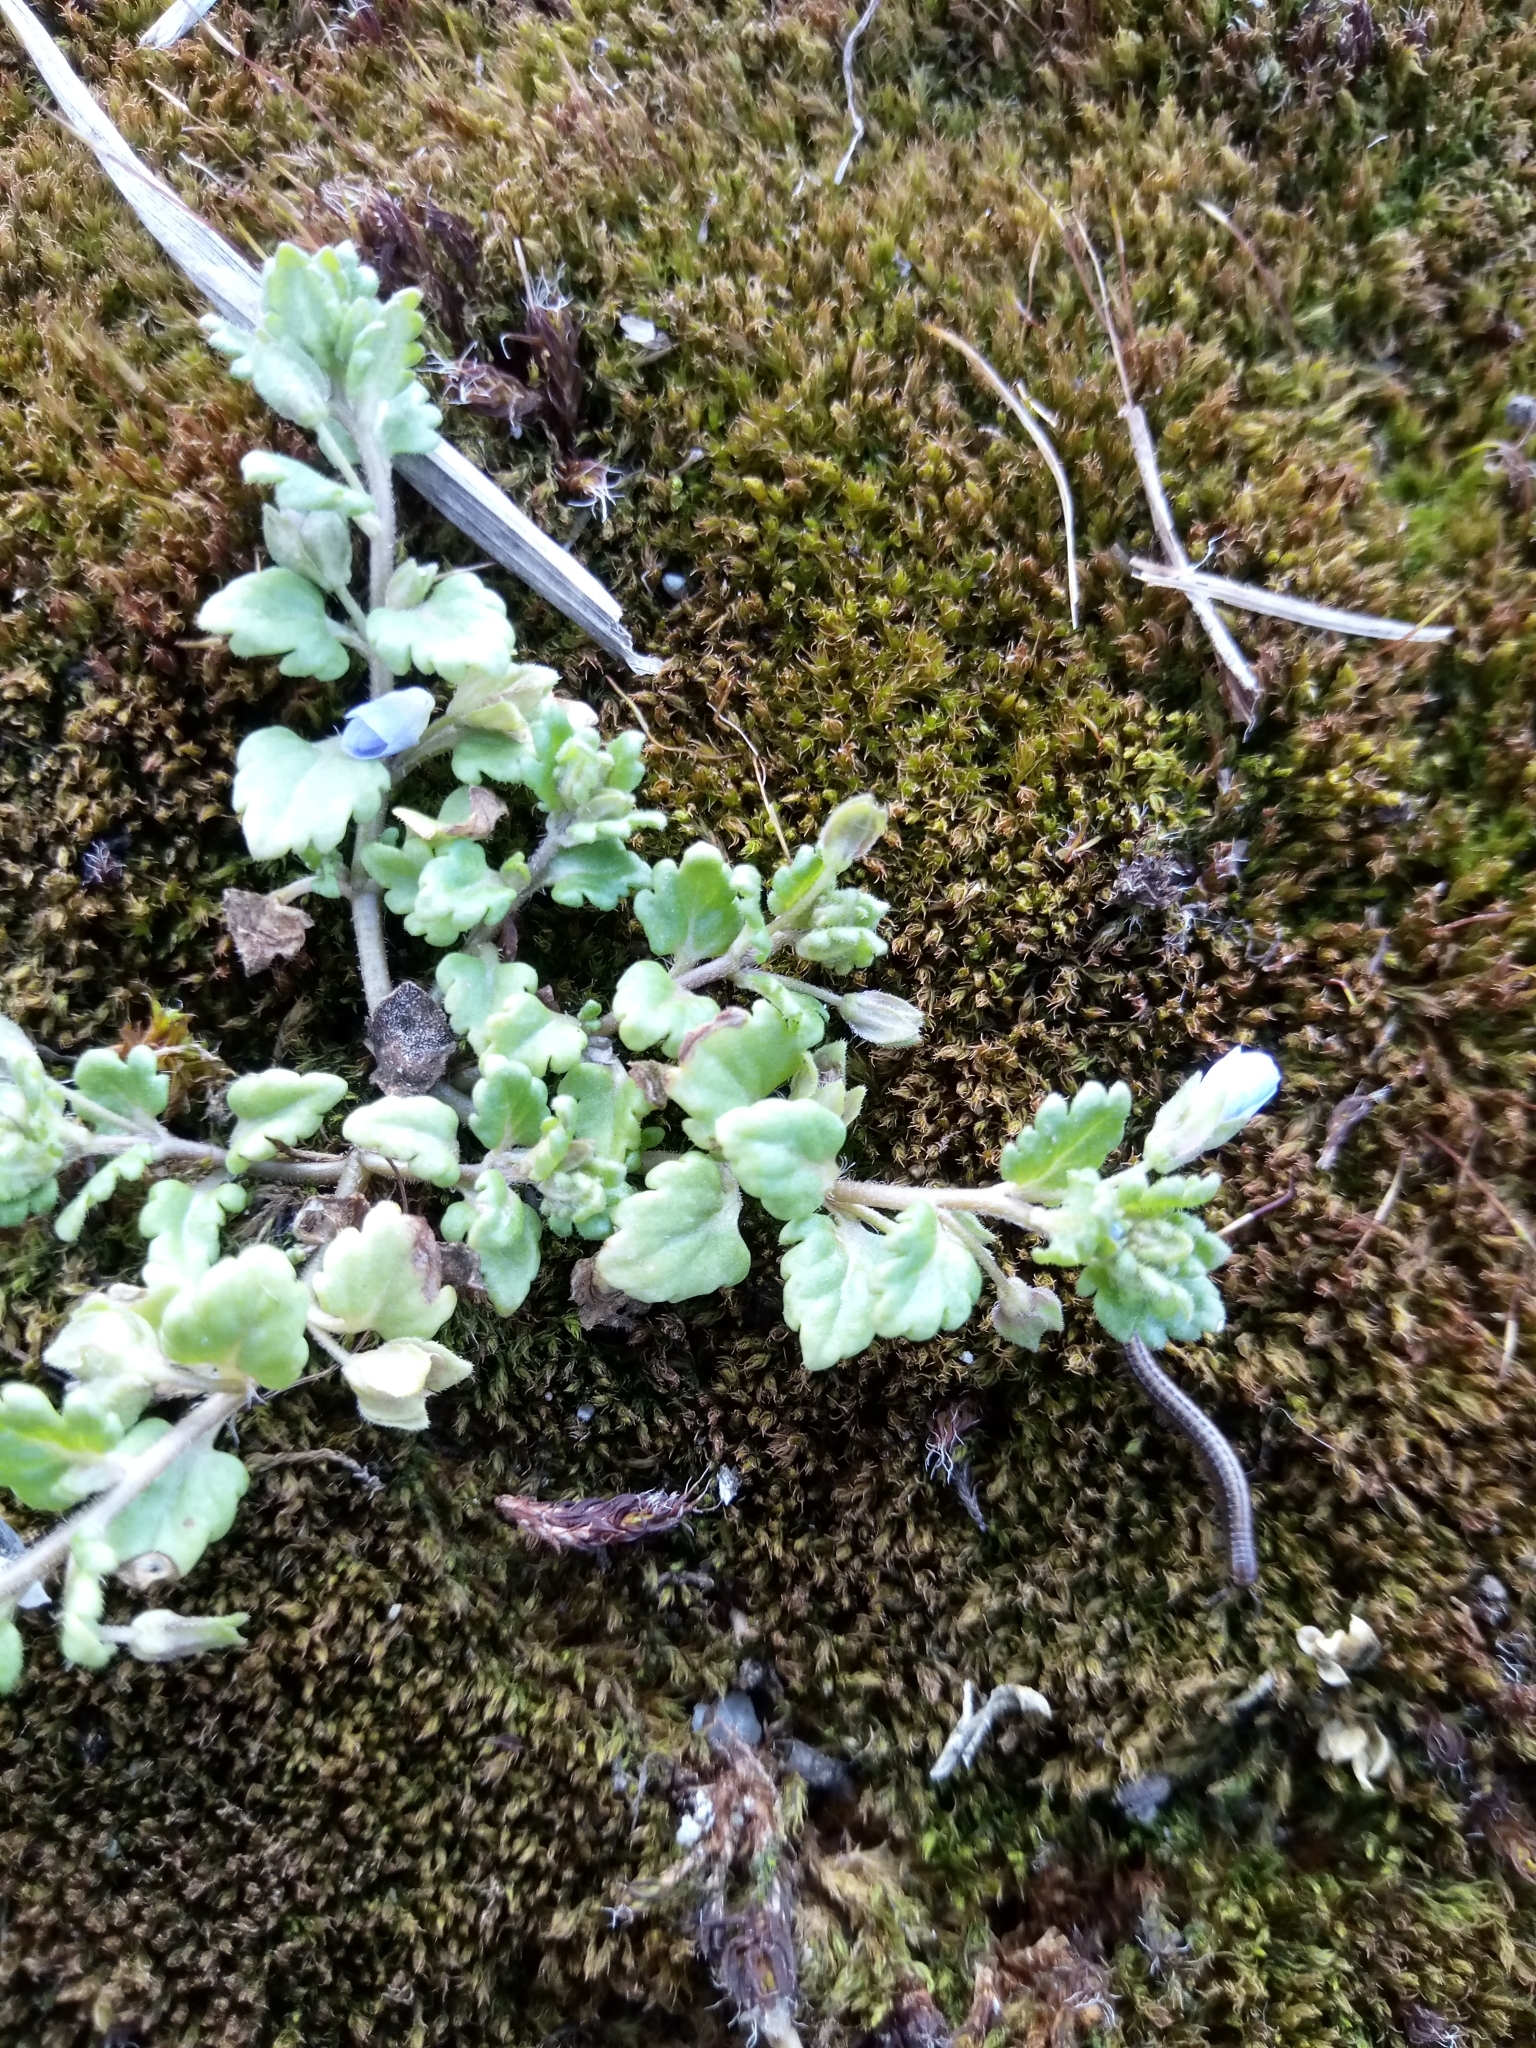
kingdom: Plantae
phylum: Tracheophyta
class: Magnoliopsida
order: Lamiales
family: Plantaginaceae
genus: Veronica
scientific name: Veronica polita
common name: Grey field-speedwell
